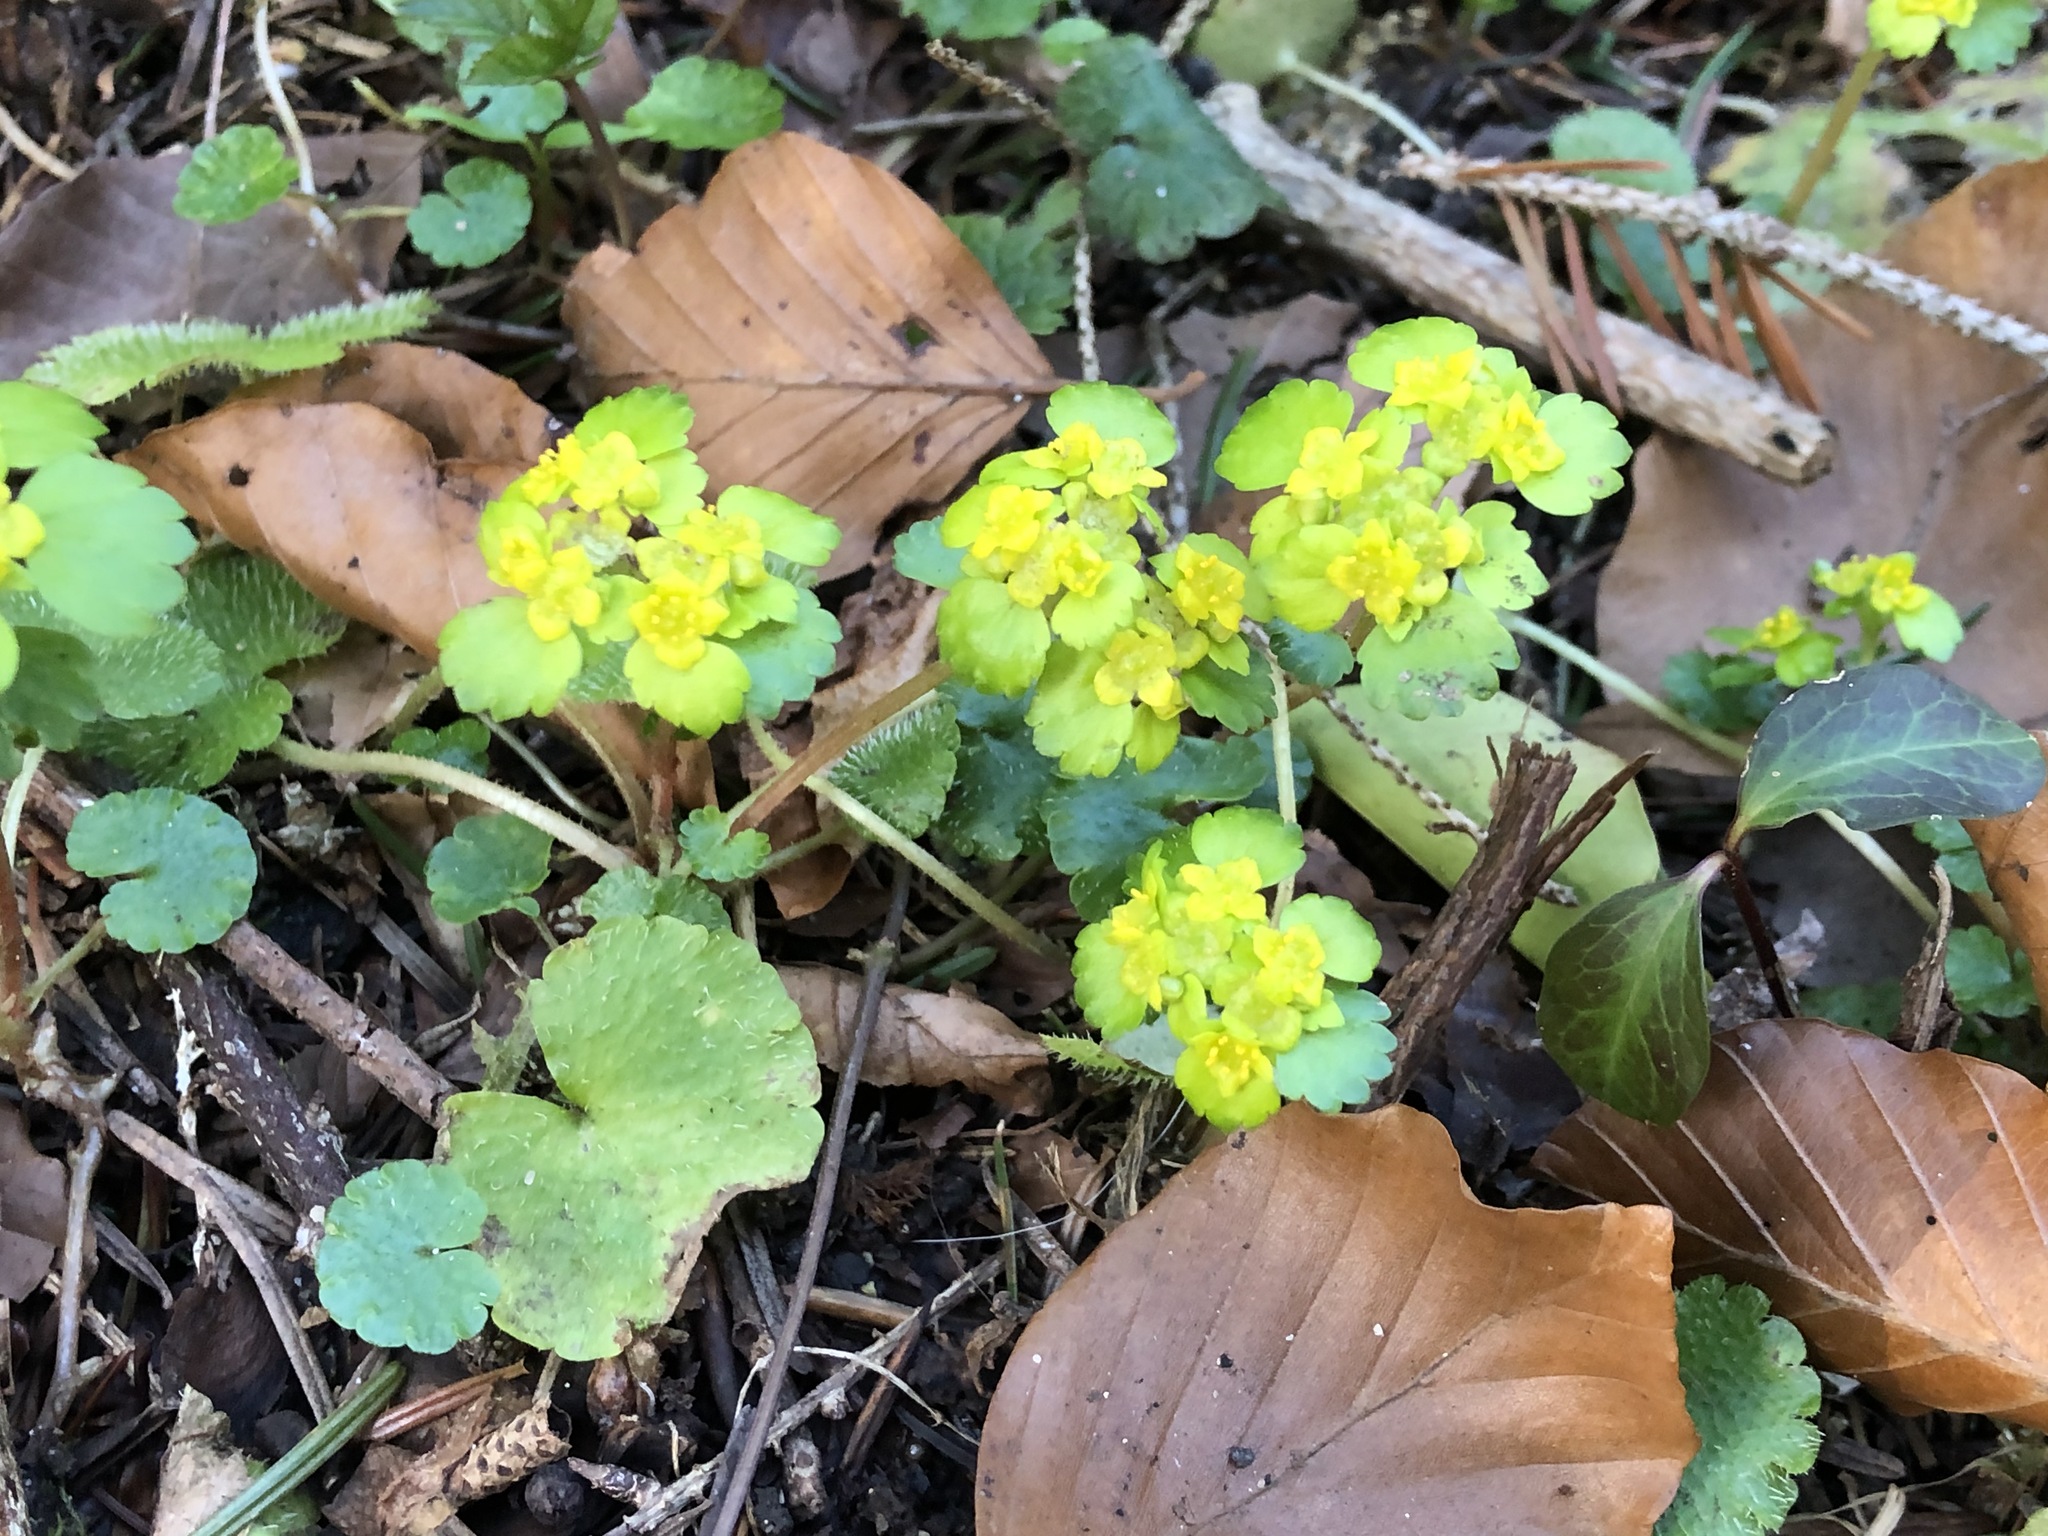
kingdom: Plantae
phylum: Tracheophyta
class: Magnoliopsida
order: Saxifragales
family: Saxifragaceae
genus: Chrysosplenium
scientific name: Chrysosplenium alternifolium
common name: Alternate-leaved golden-saxifrage
